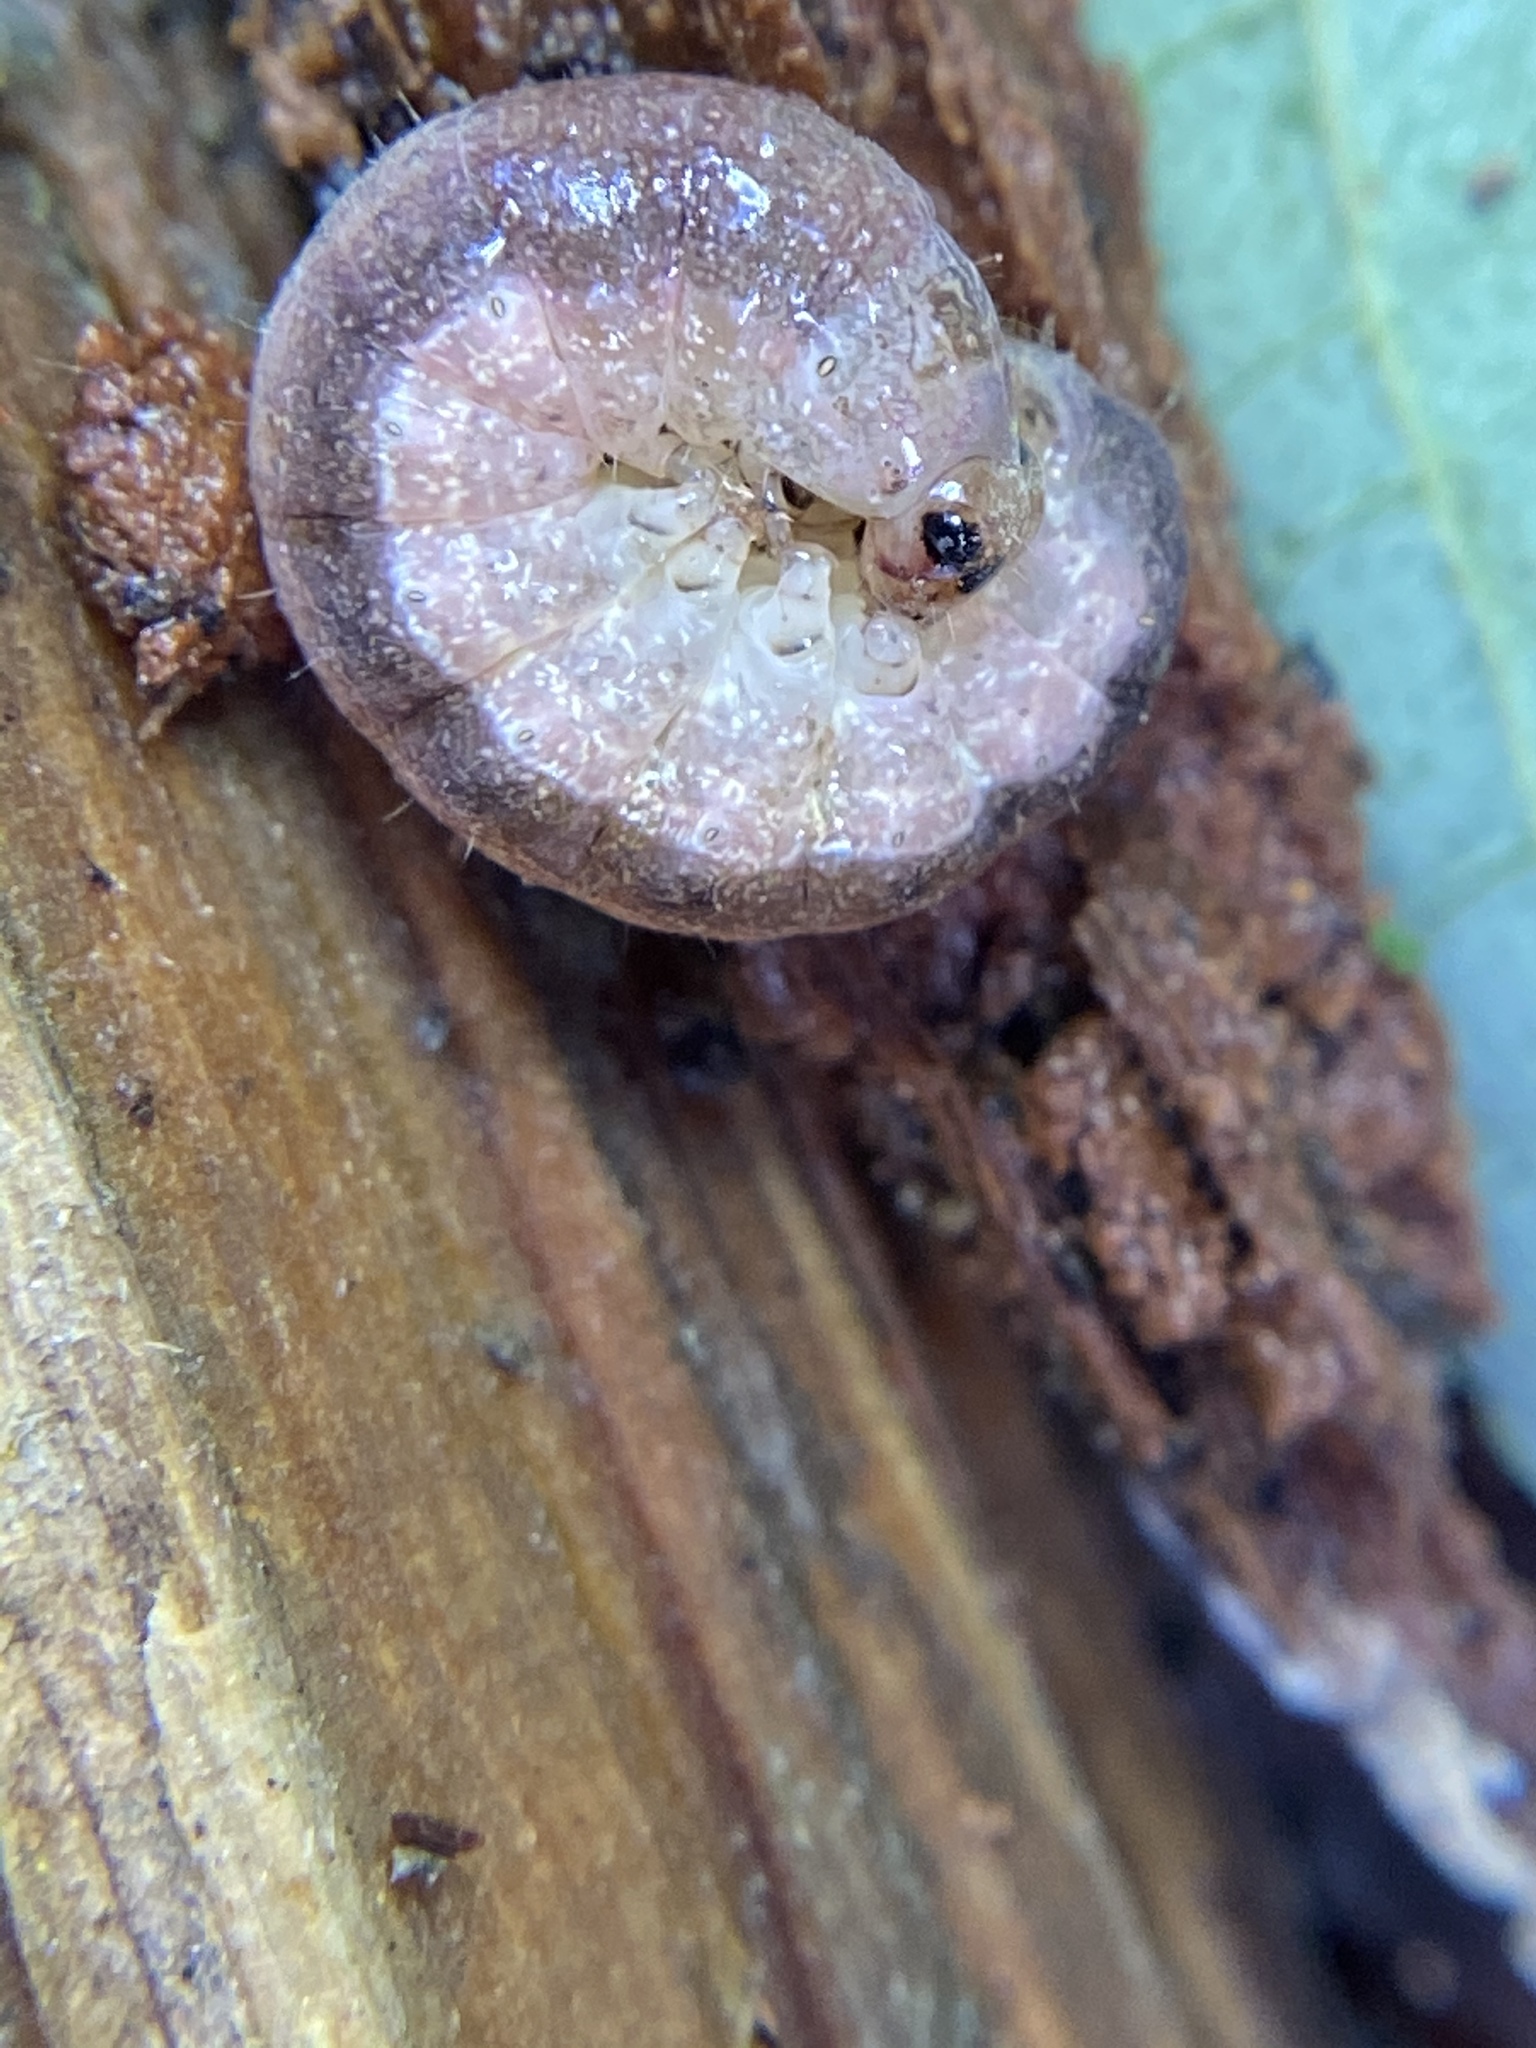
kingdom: Animalia
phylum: Arthropoda
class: Insecta
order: Lepidoptera
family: Noctuidae
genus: Crocigrapha
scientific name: Crocigrapha normani
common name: Norman's quaker
